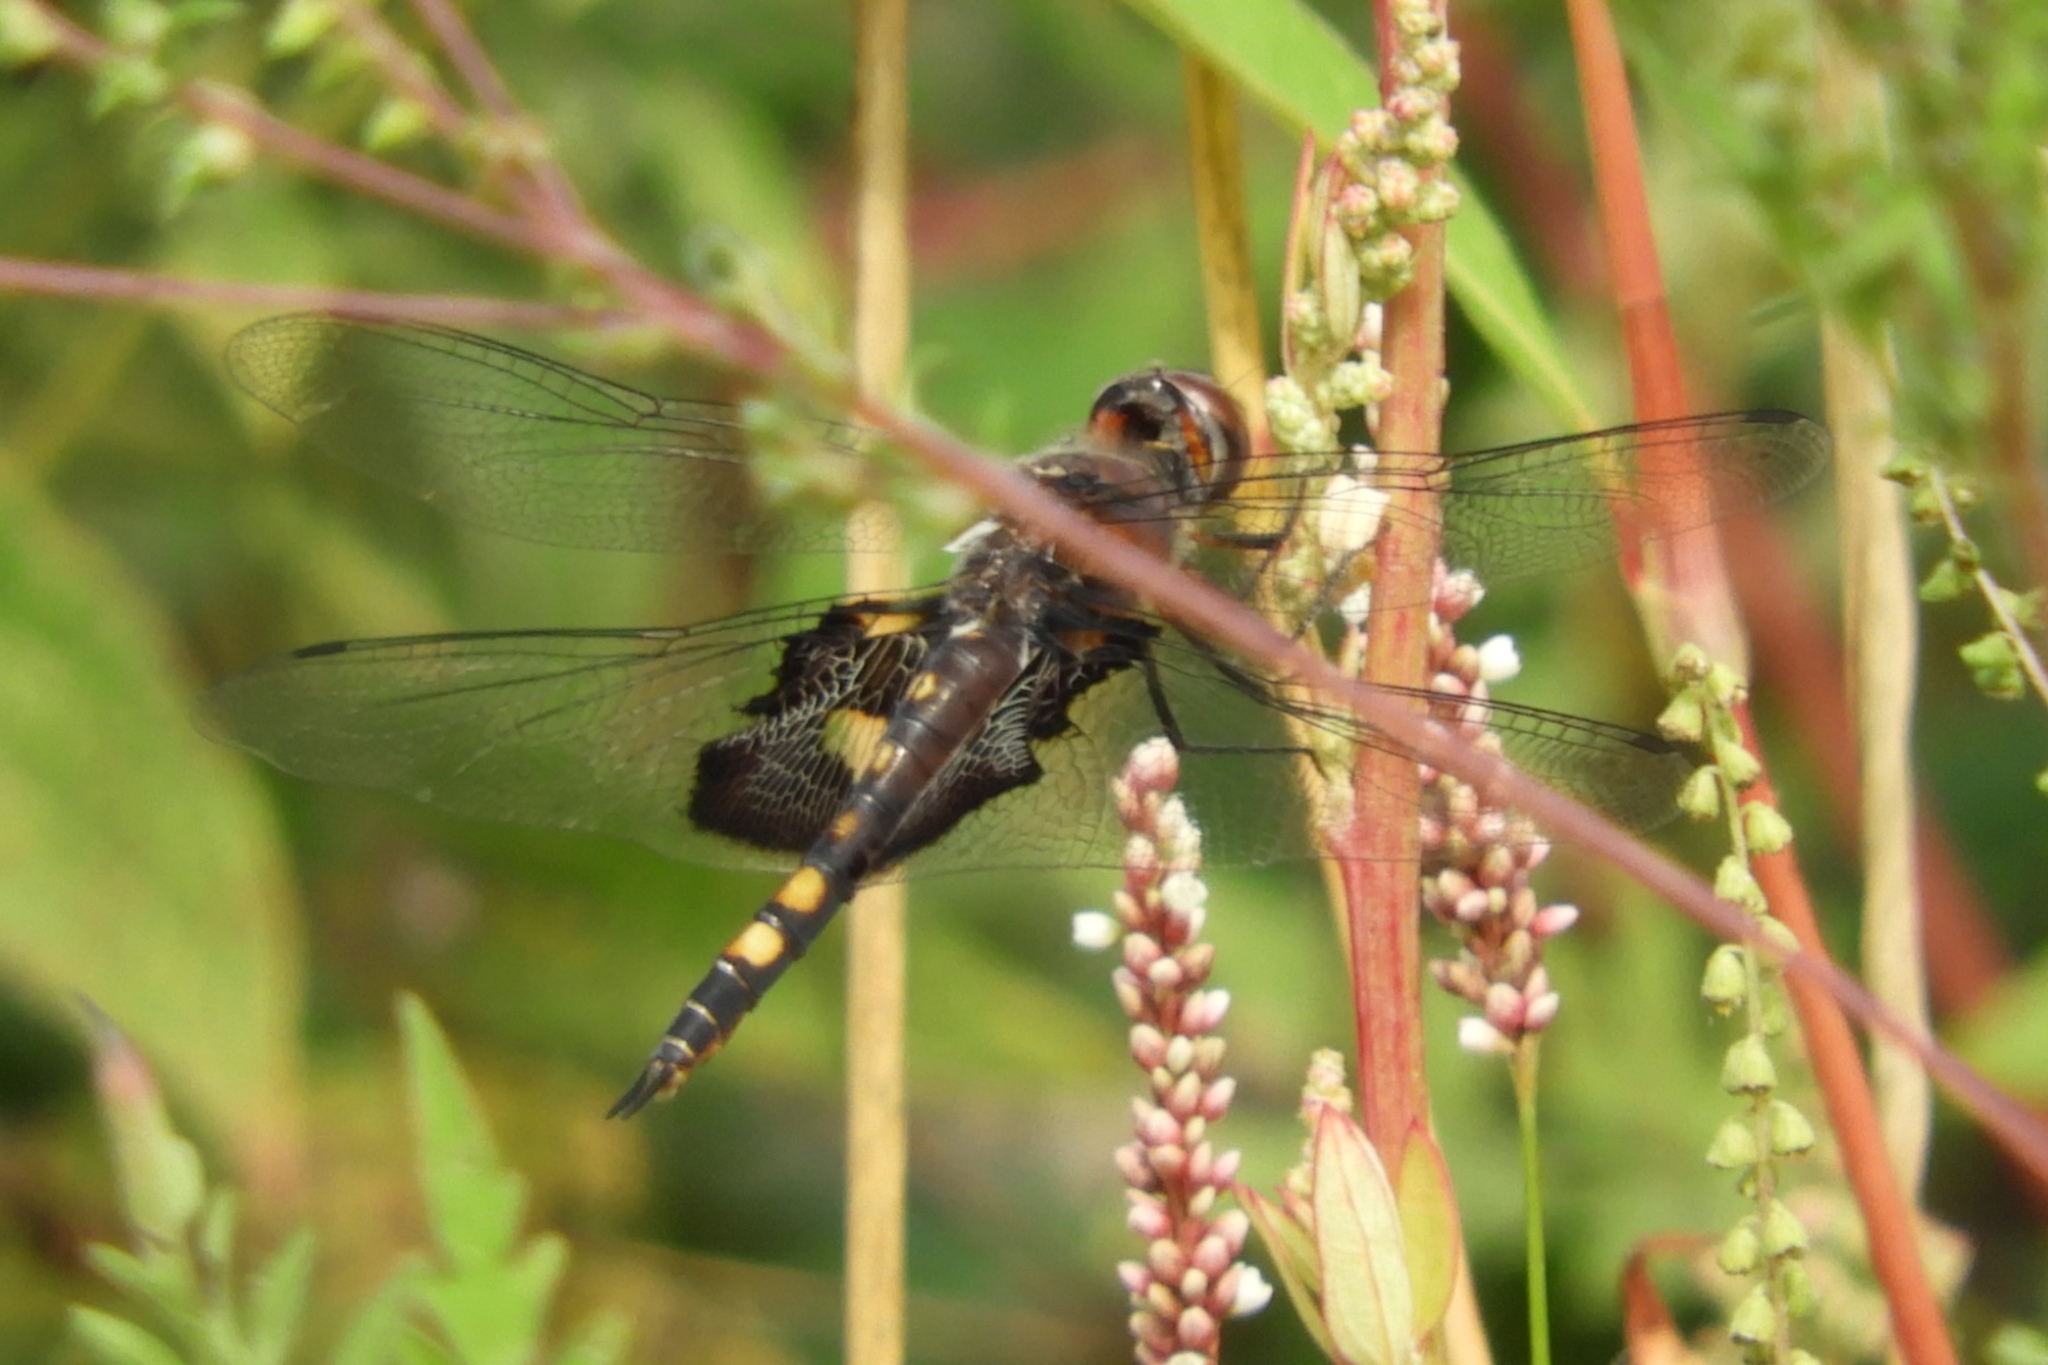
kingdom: Animalia
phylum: Arthropoda
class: Insecta
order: Odonata
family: Libellulidae
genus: Tramea
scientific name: Tramea lacerata
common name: Black saddlebags
